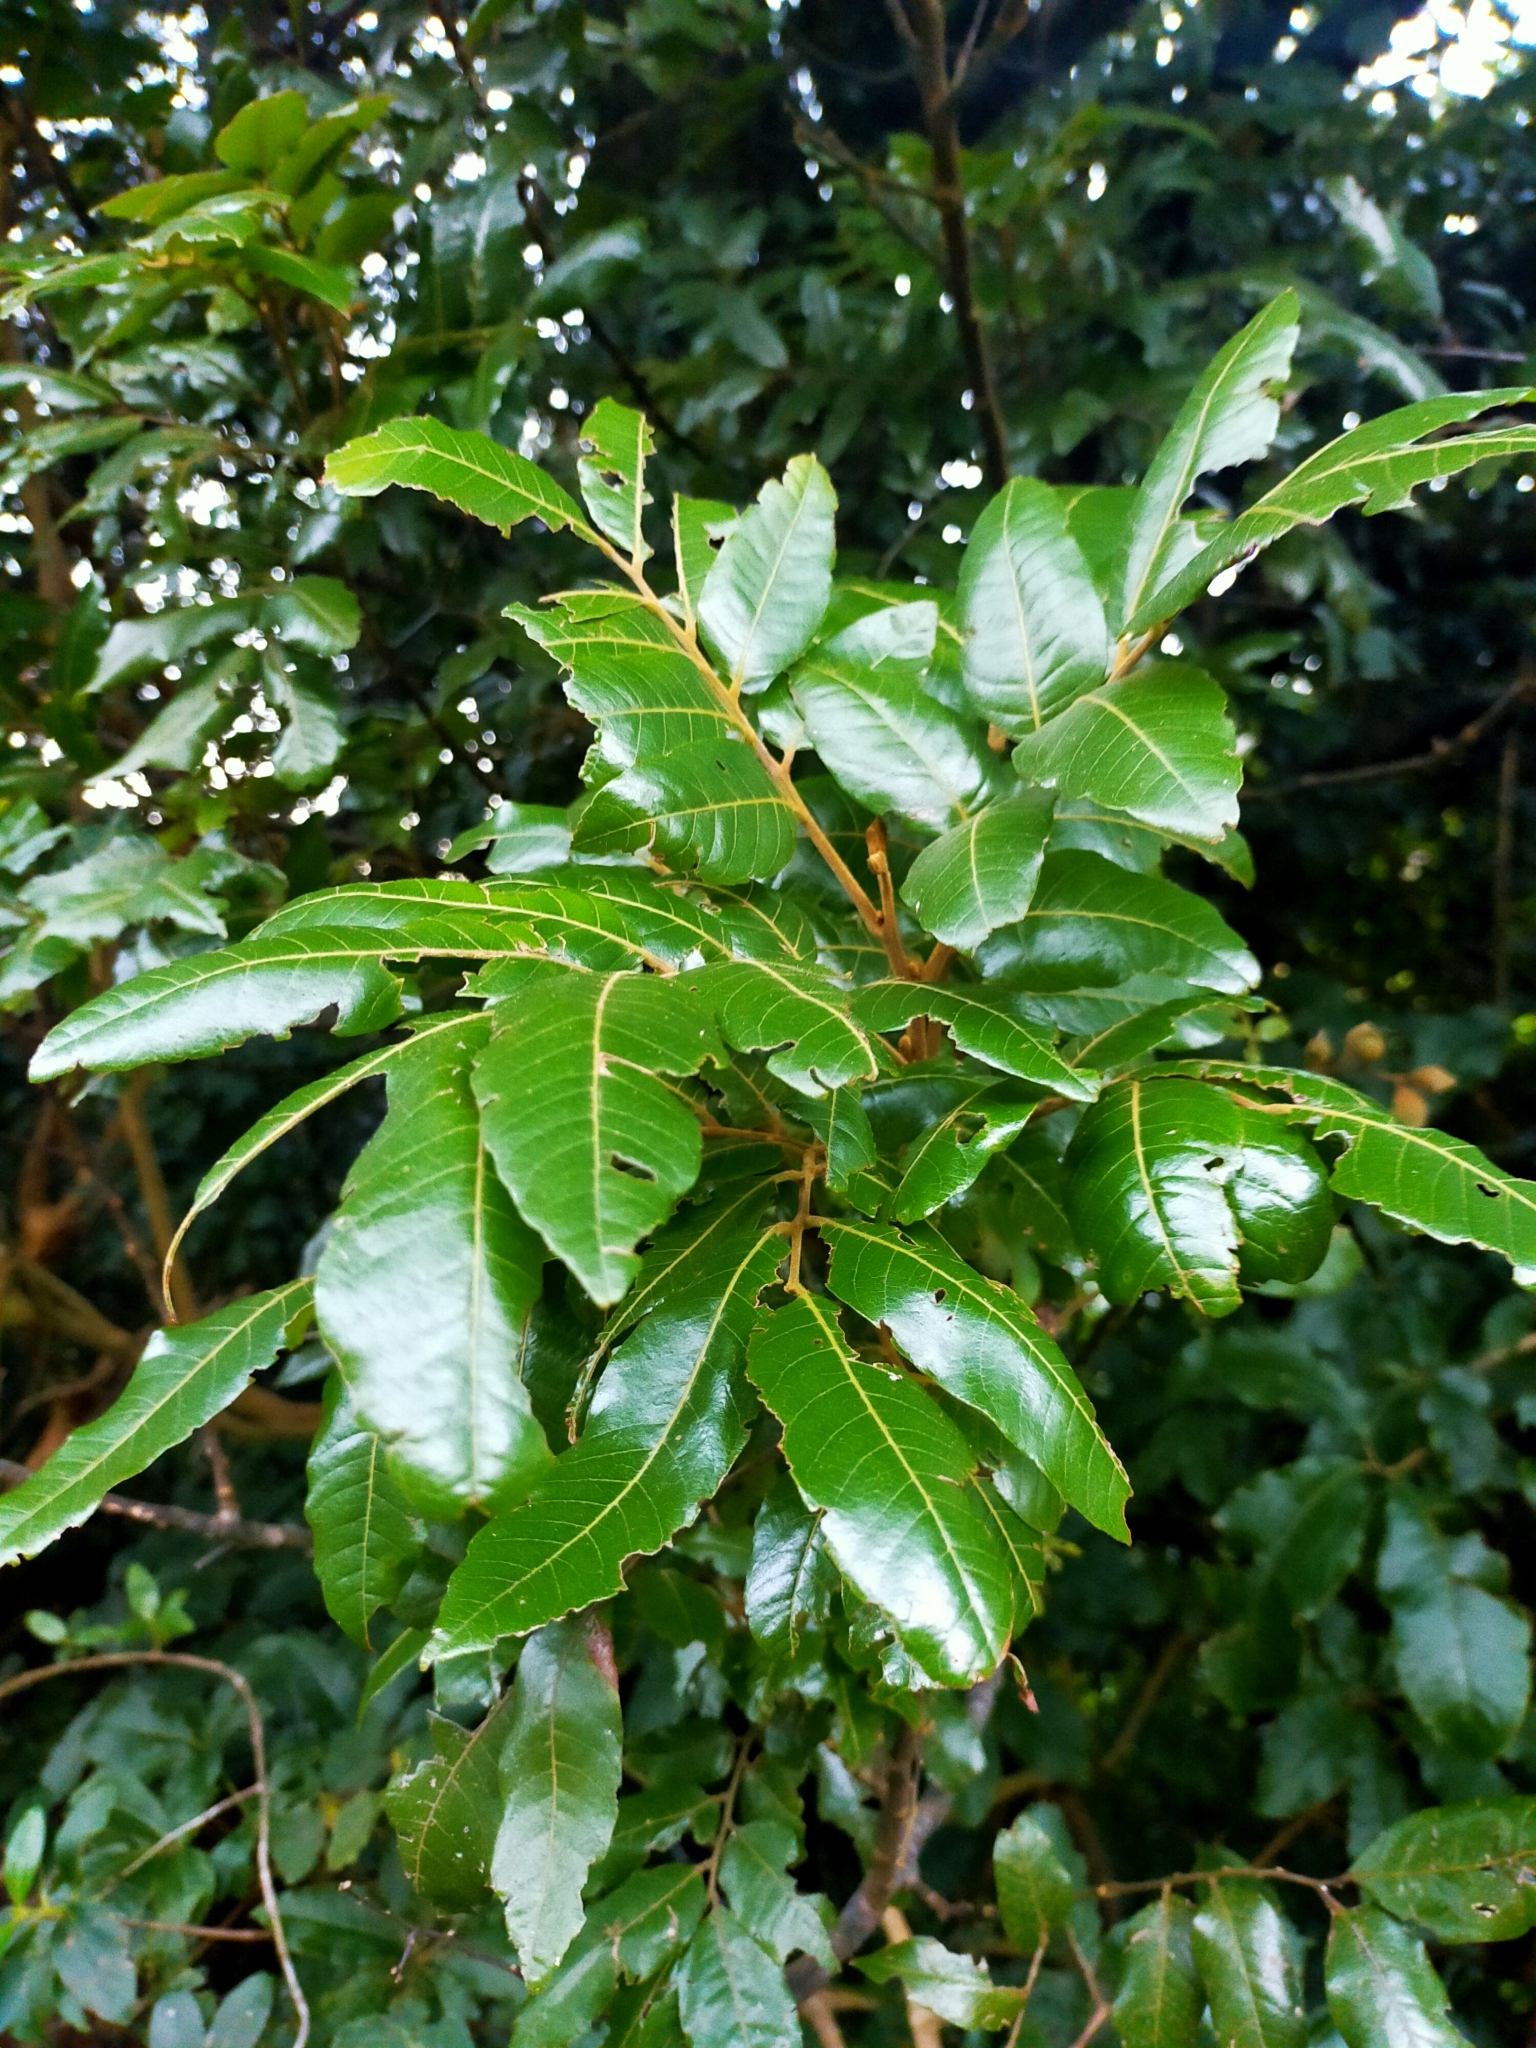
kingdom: Plantae
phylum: Tracheophyta
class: Magnoliopsida
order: Sapindales
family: Sapindaceae
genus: Alectryon
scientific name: Alectryon excelsus
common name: Three kings titoki
